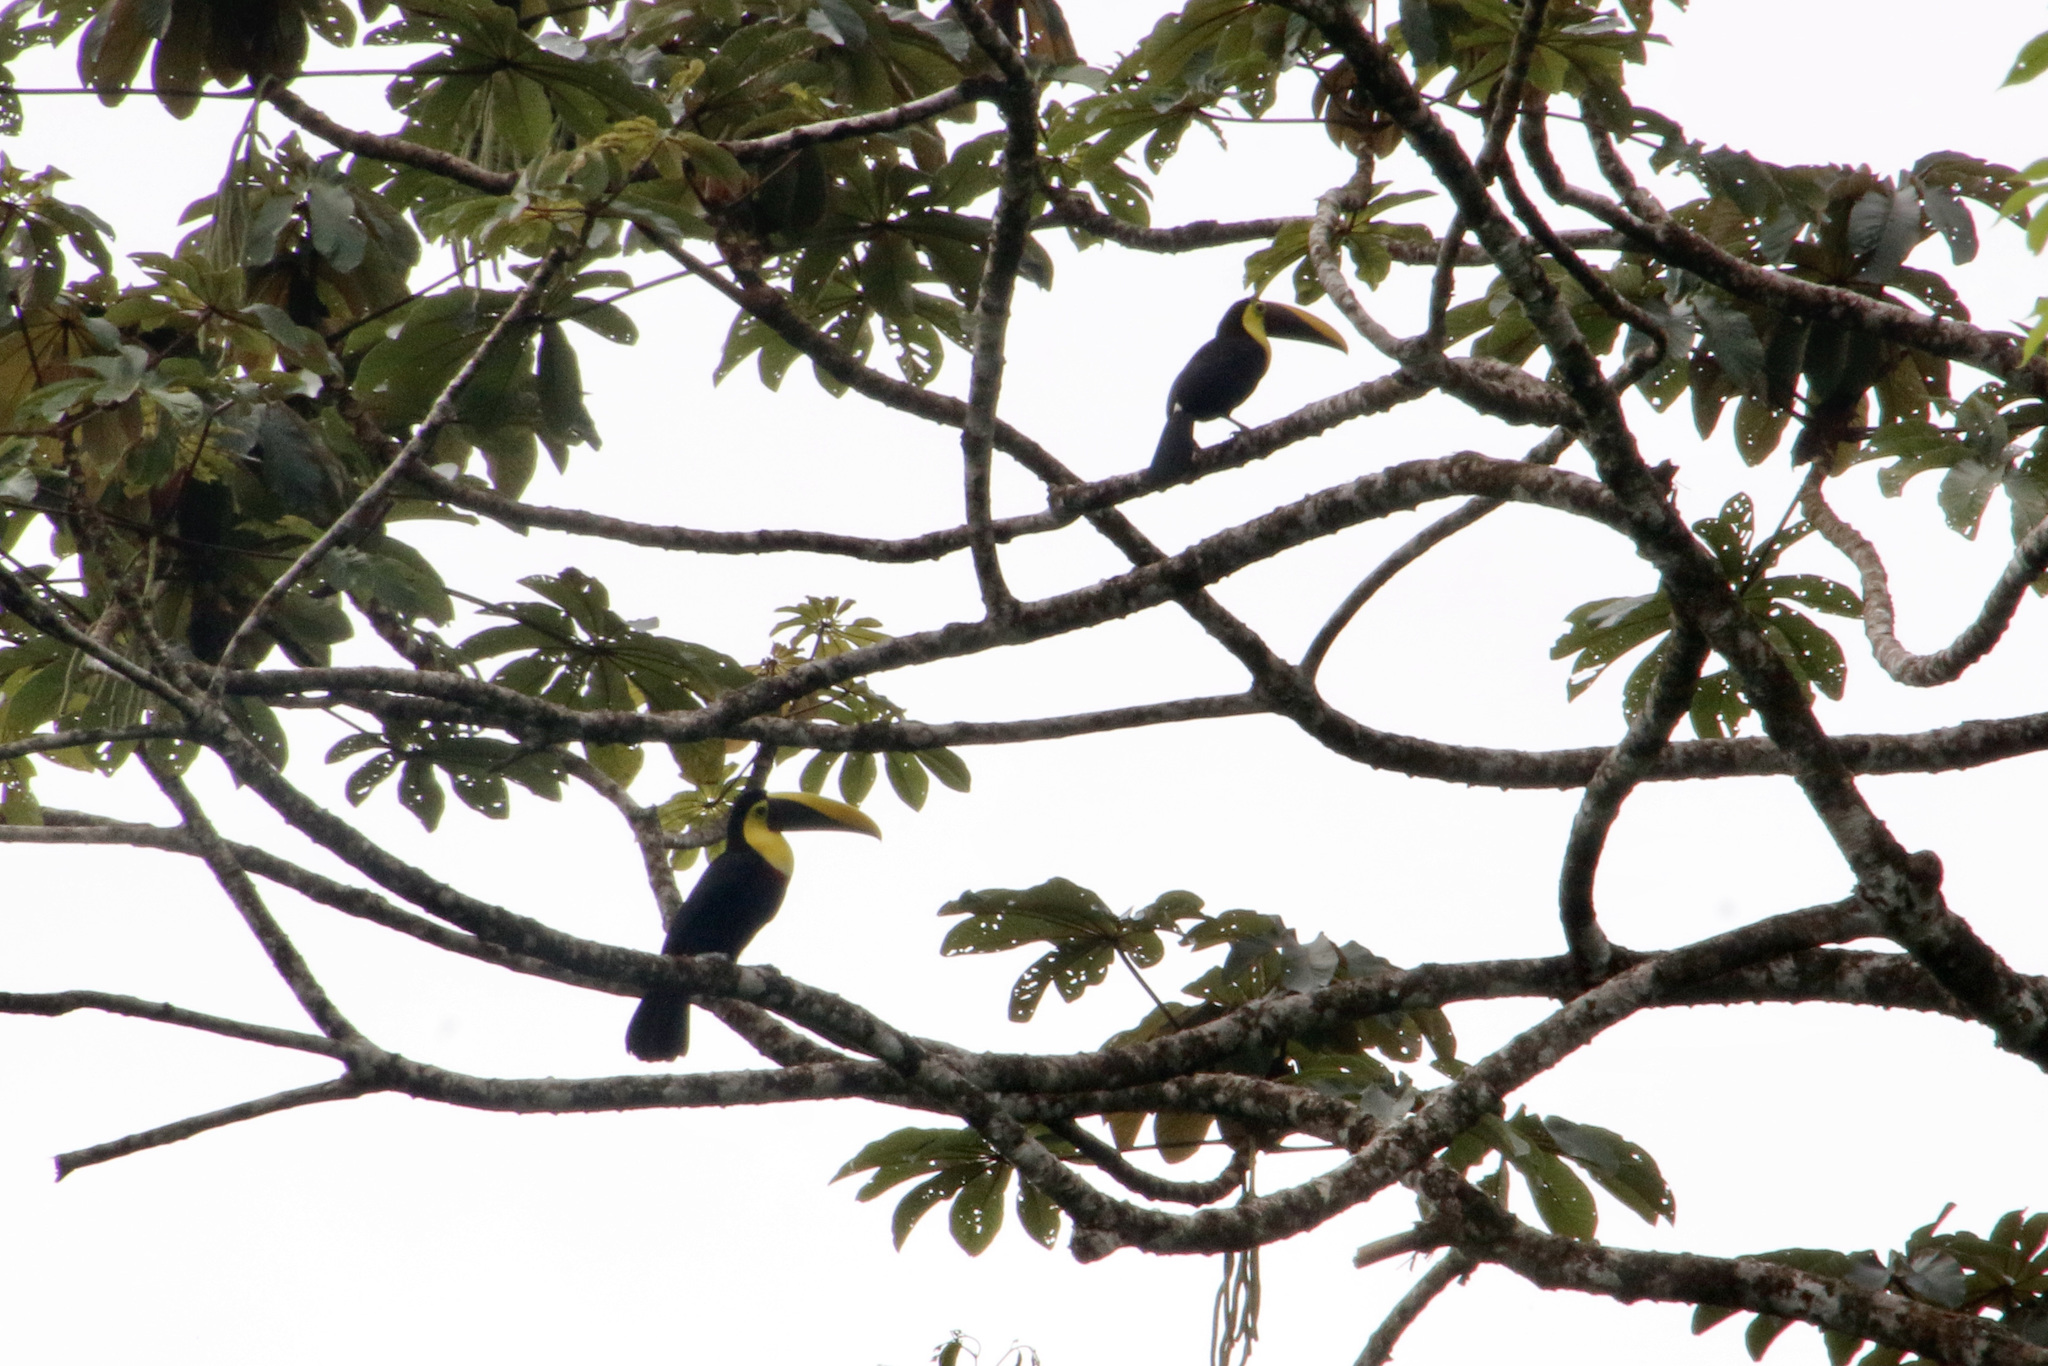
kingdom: Animalia
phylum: Chordata
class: Aves
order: Piciformes
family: Ramphastidae
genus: Ramphastos
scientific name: Ramphastos ambiguus
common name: Yellow-throated toucan
